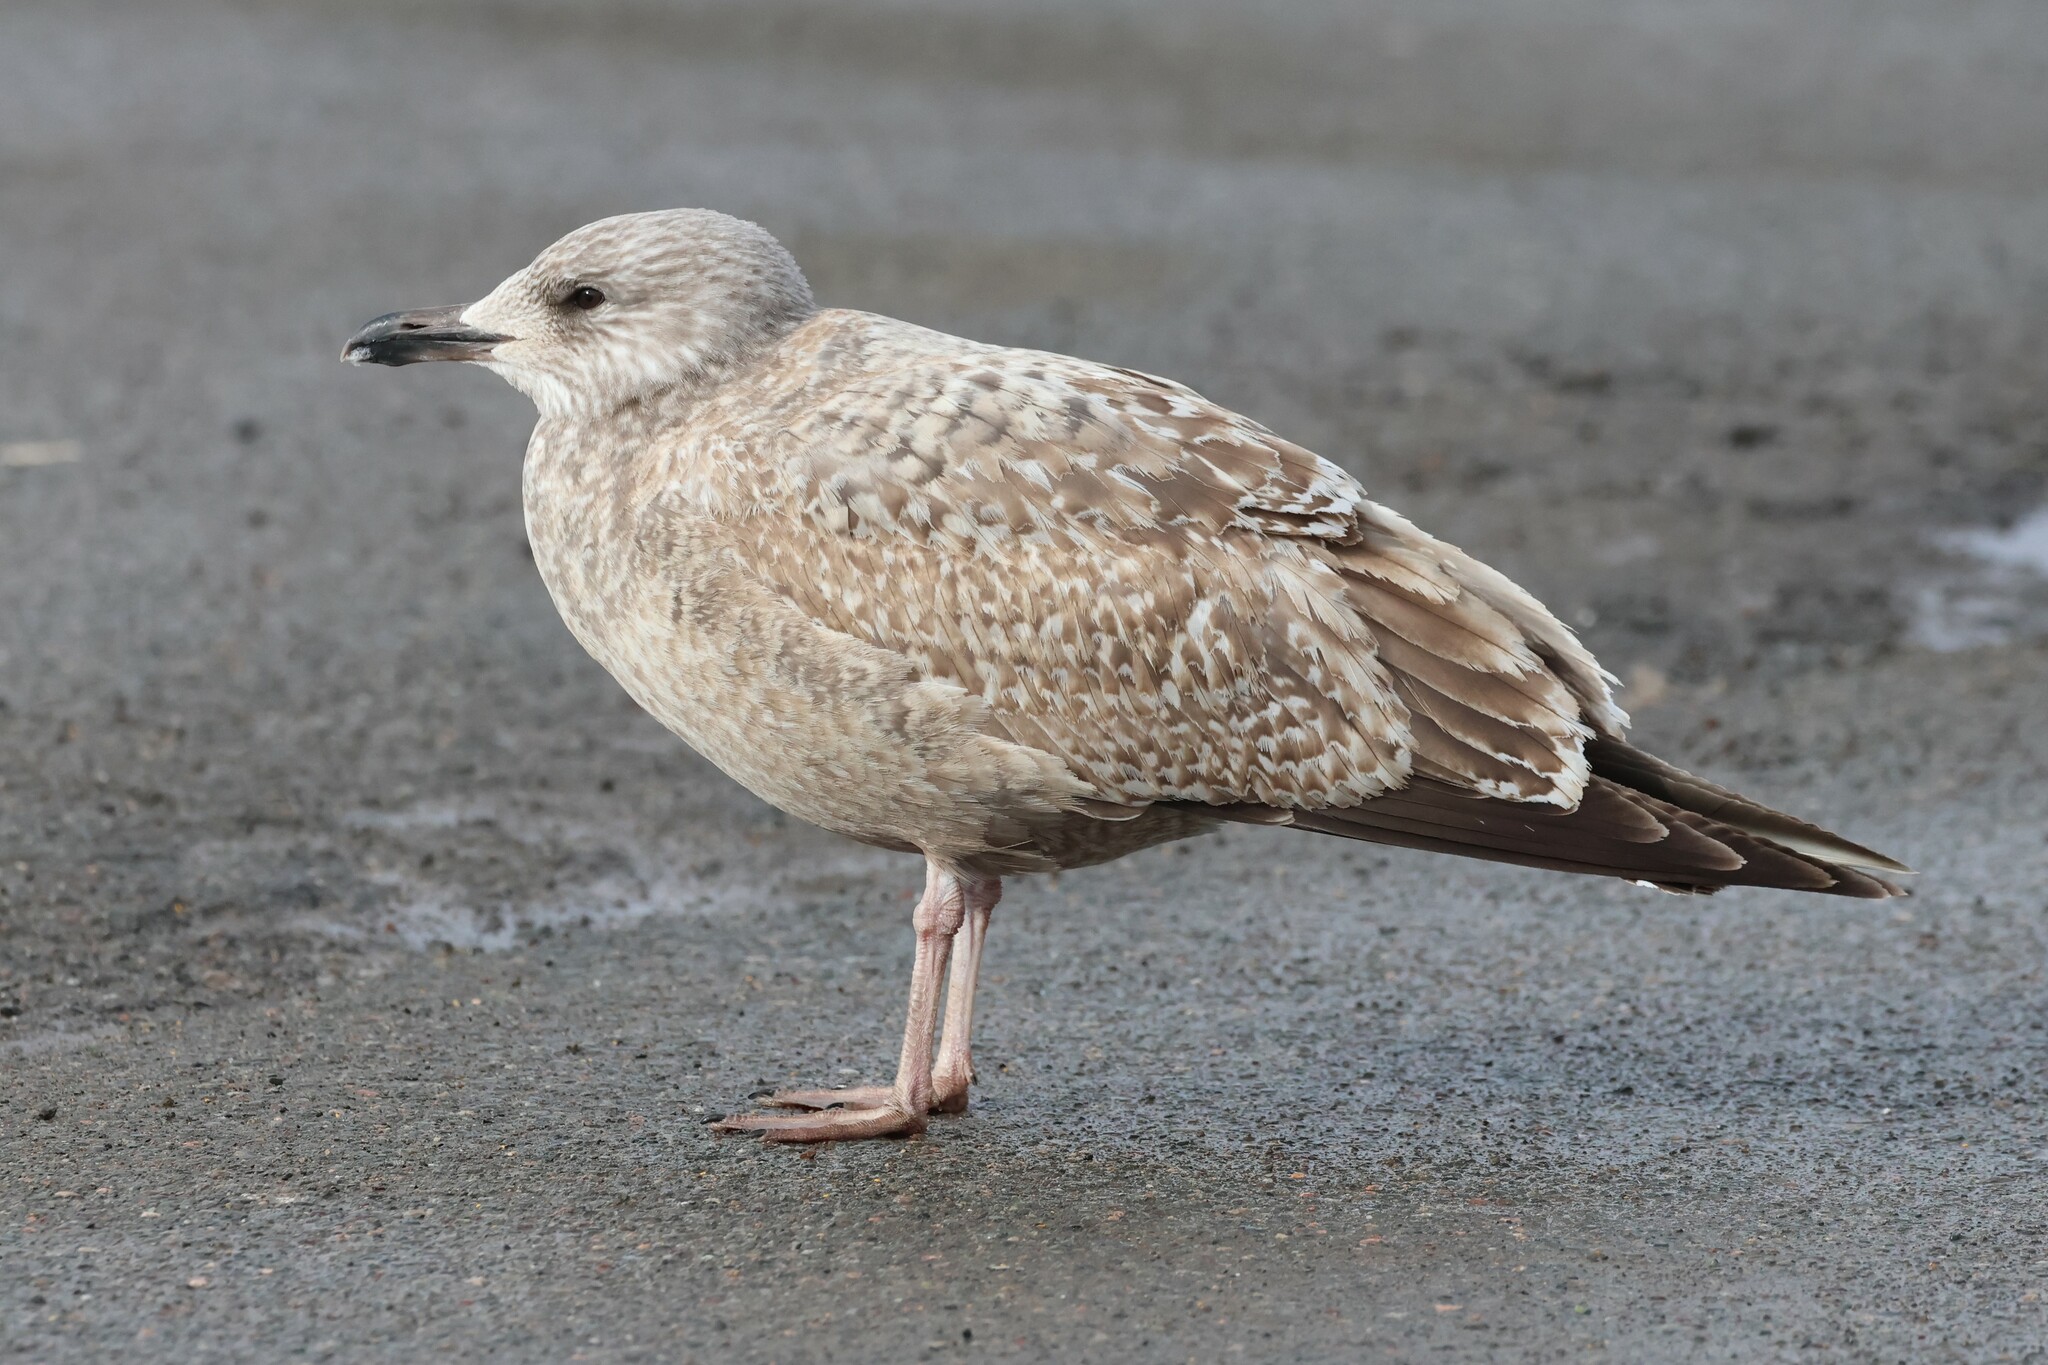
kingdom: Animalia
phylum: Chordata
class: Aves
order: Charadriiformes
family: Laridae
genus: Larus
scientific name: Larus argentatus
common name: Herring gull
